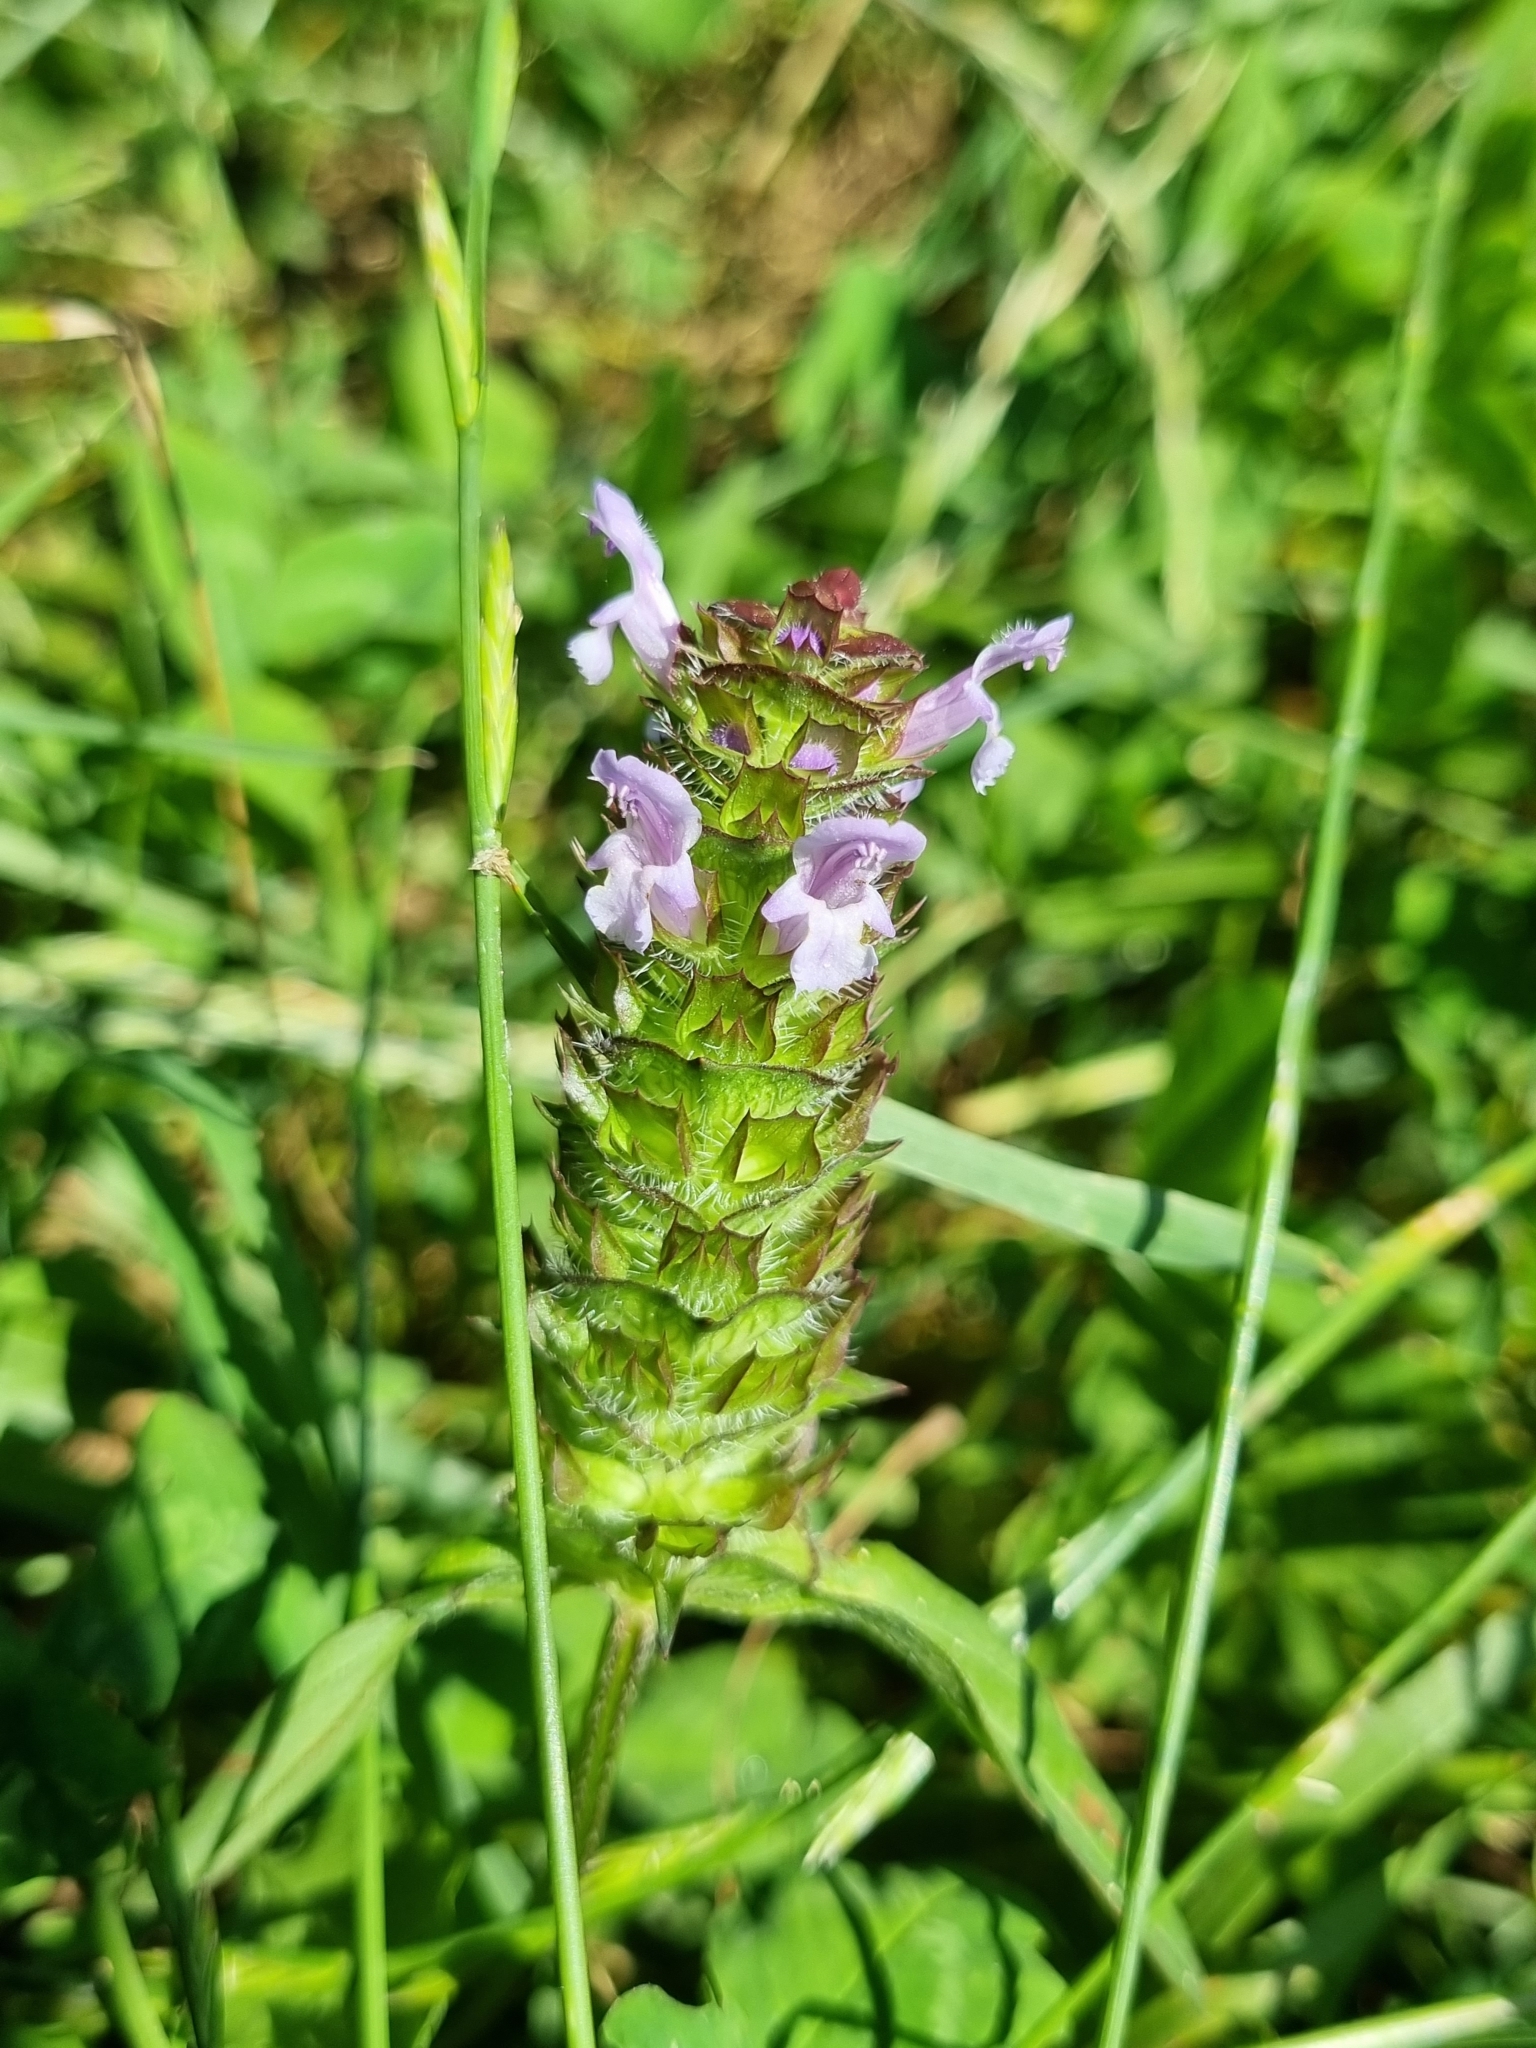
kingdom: Plantae
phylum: Tracheophyta
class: Magnoliopsida
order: Lamiales
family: Lamiaceae
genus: Prunella
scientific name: Prunella vulgaris
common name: Heal-all
